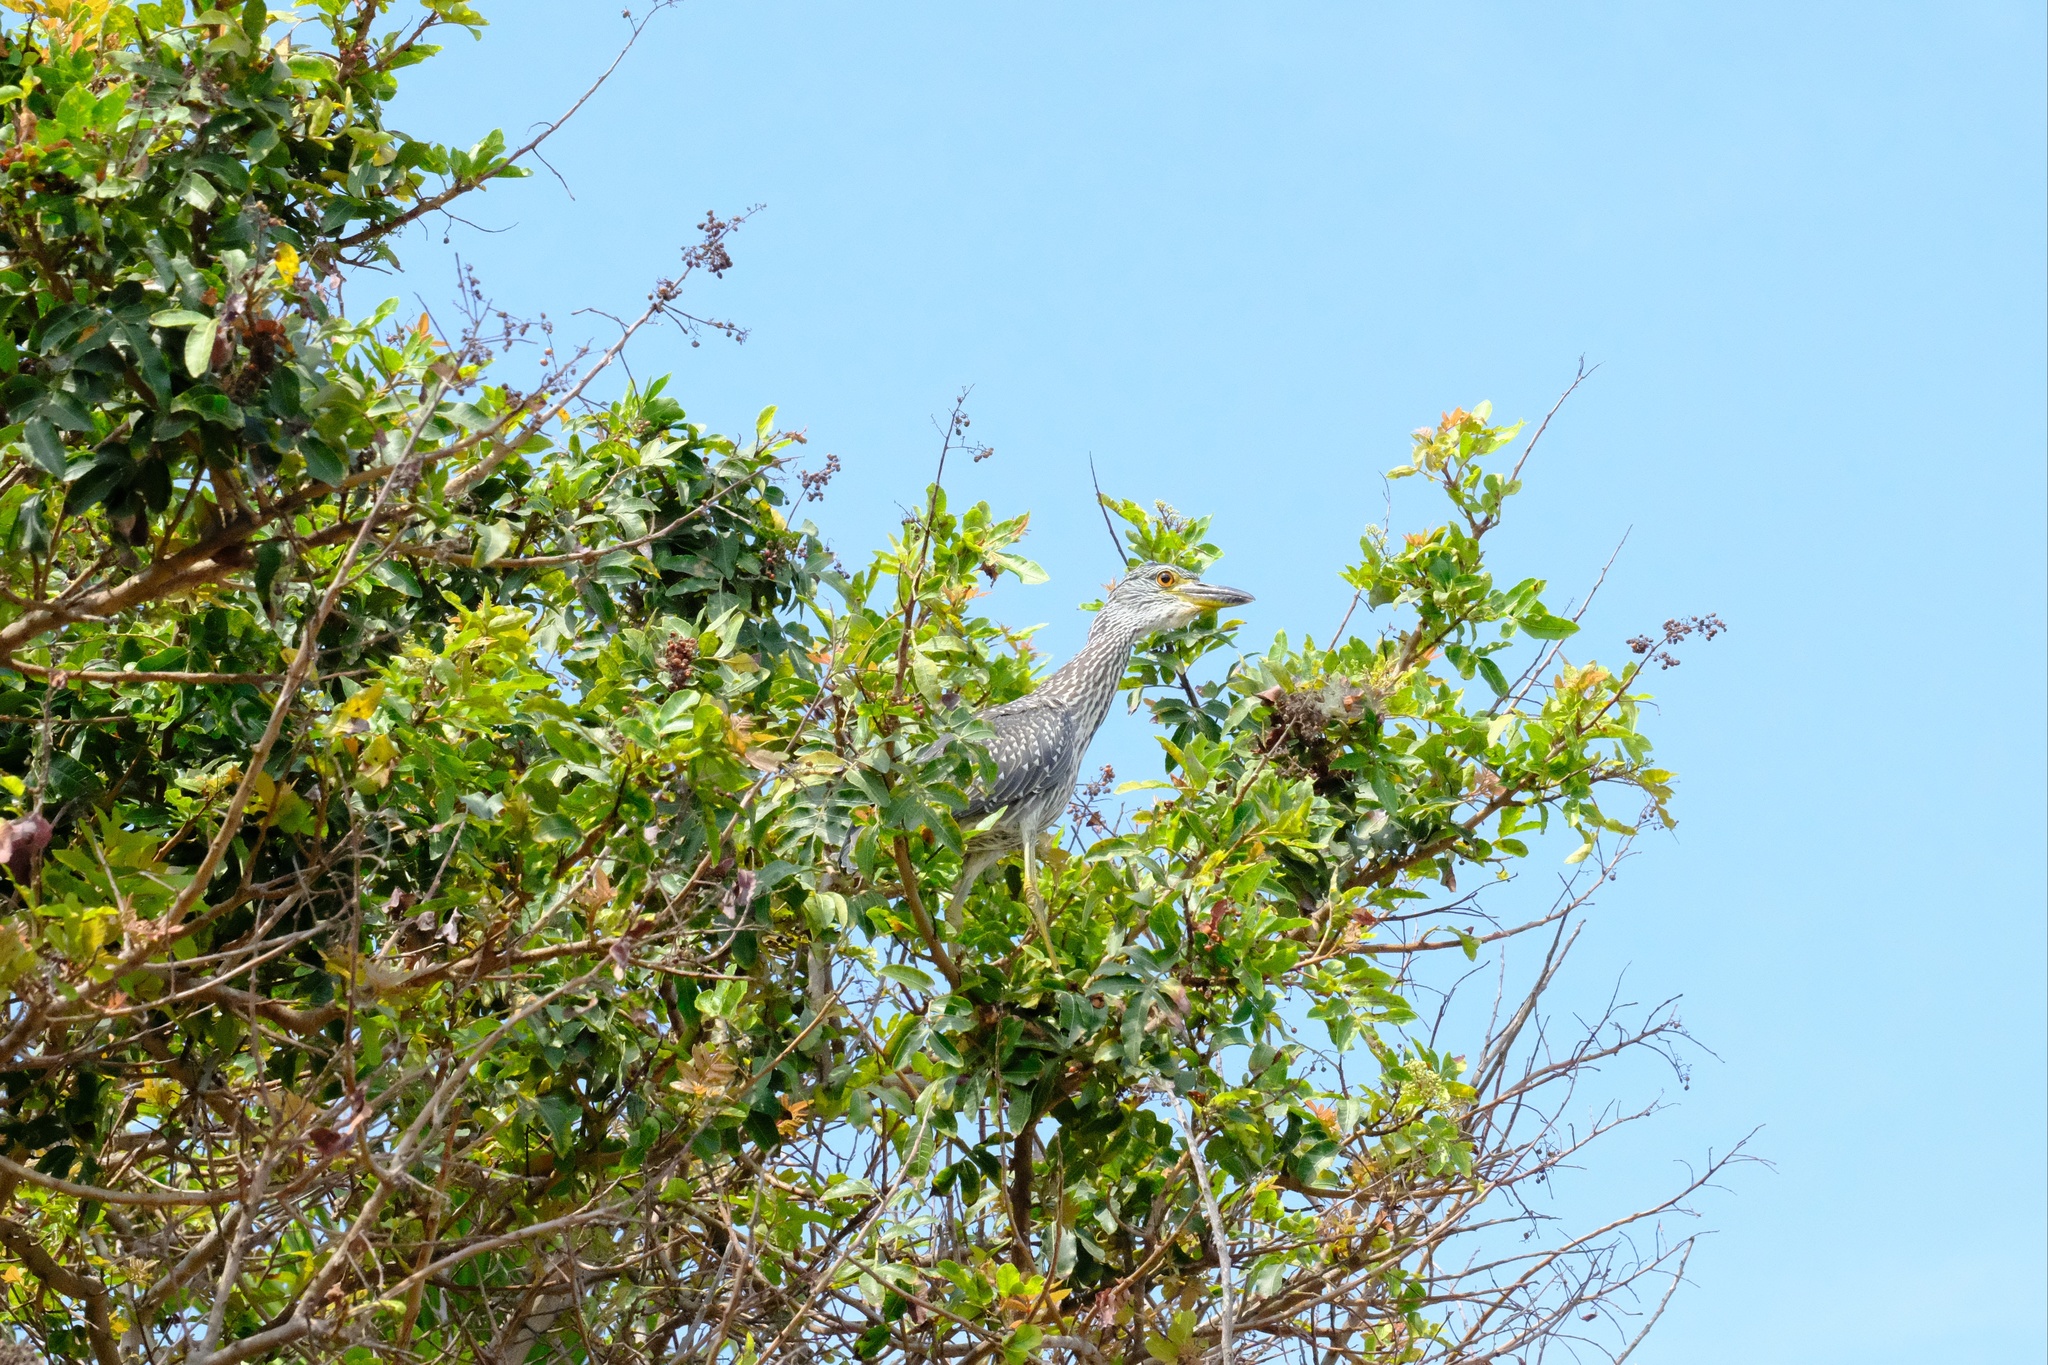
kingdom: Animalia
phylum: Chordata
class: Aves
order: Pelecaniformes
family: Ardeidae
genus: Nyctanassa
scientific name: Nyctanassa violacea
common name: Yellow-crowned night heron
